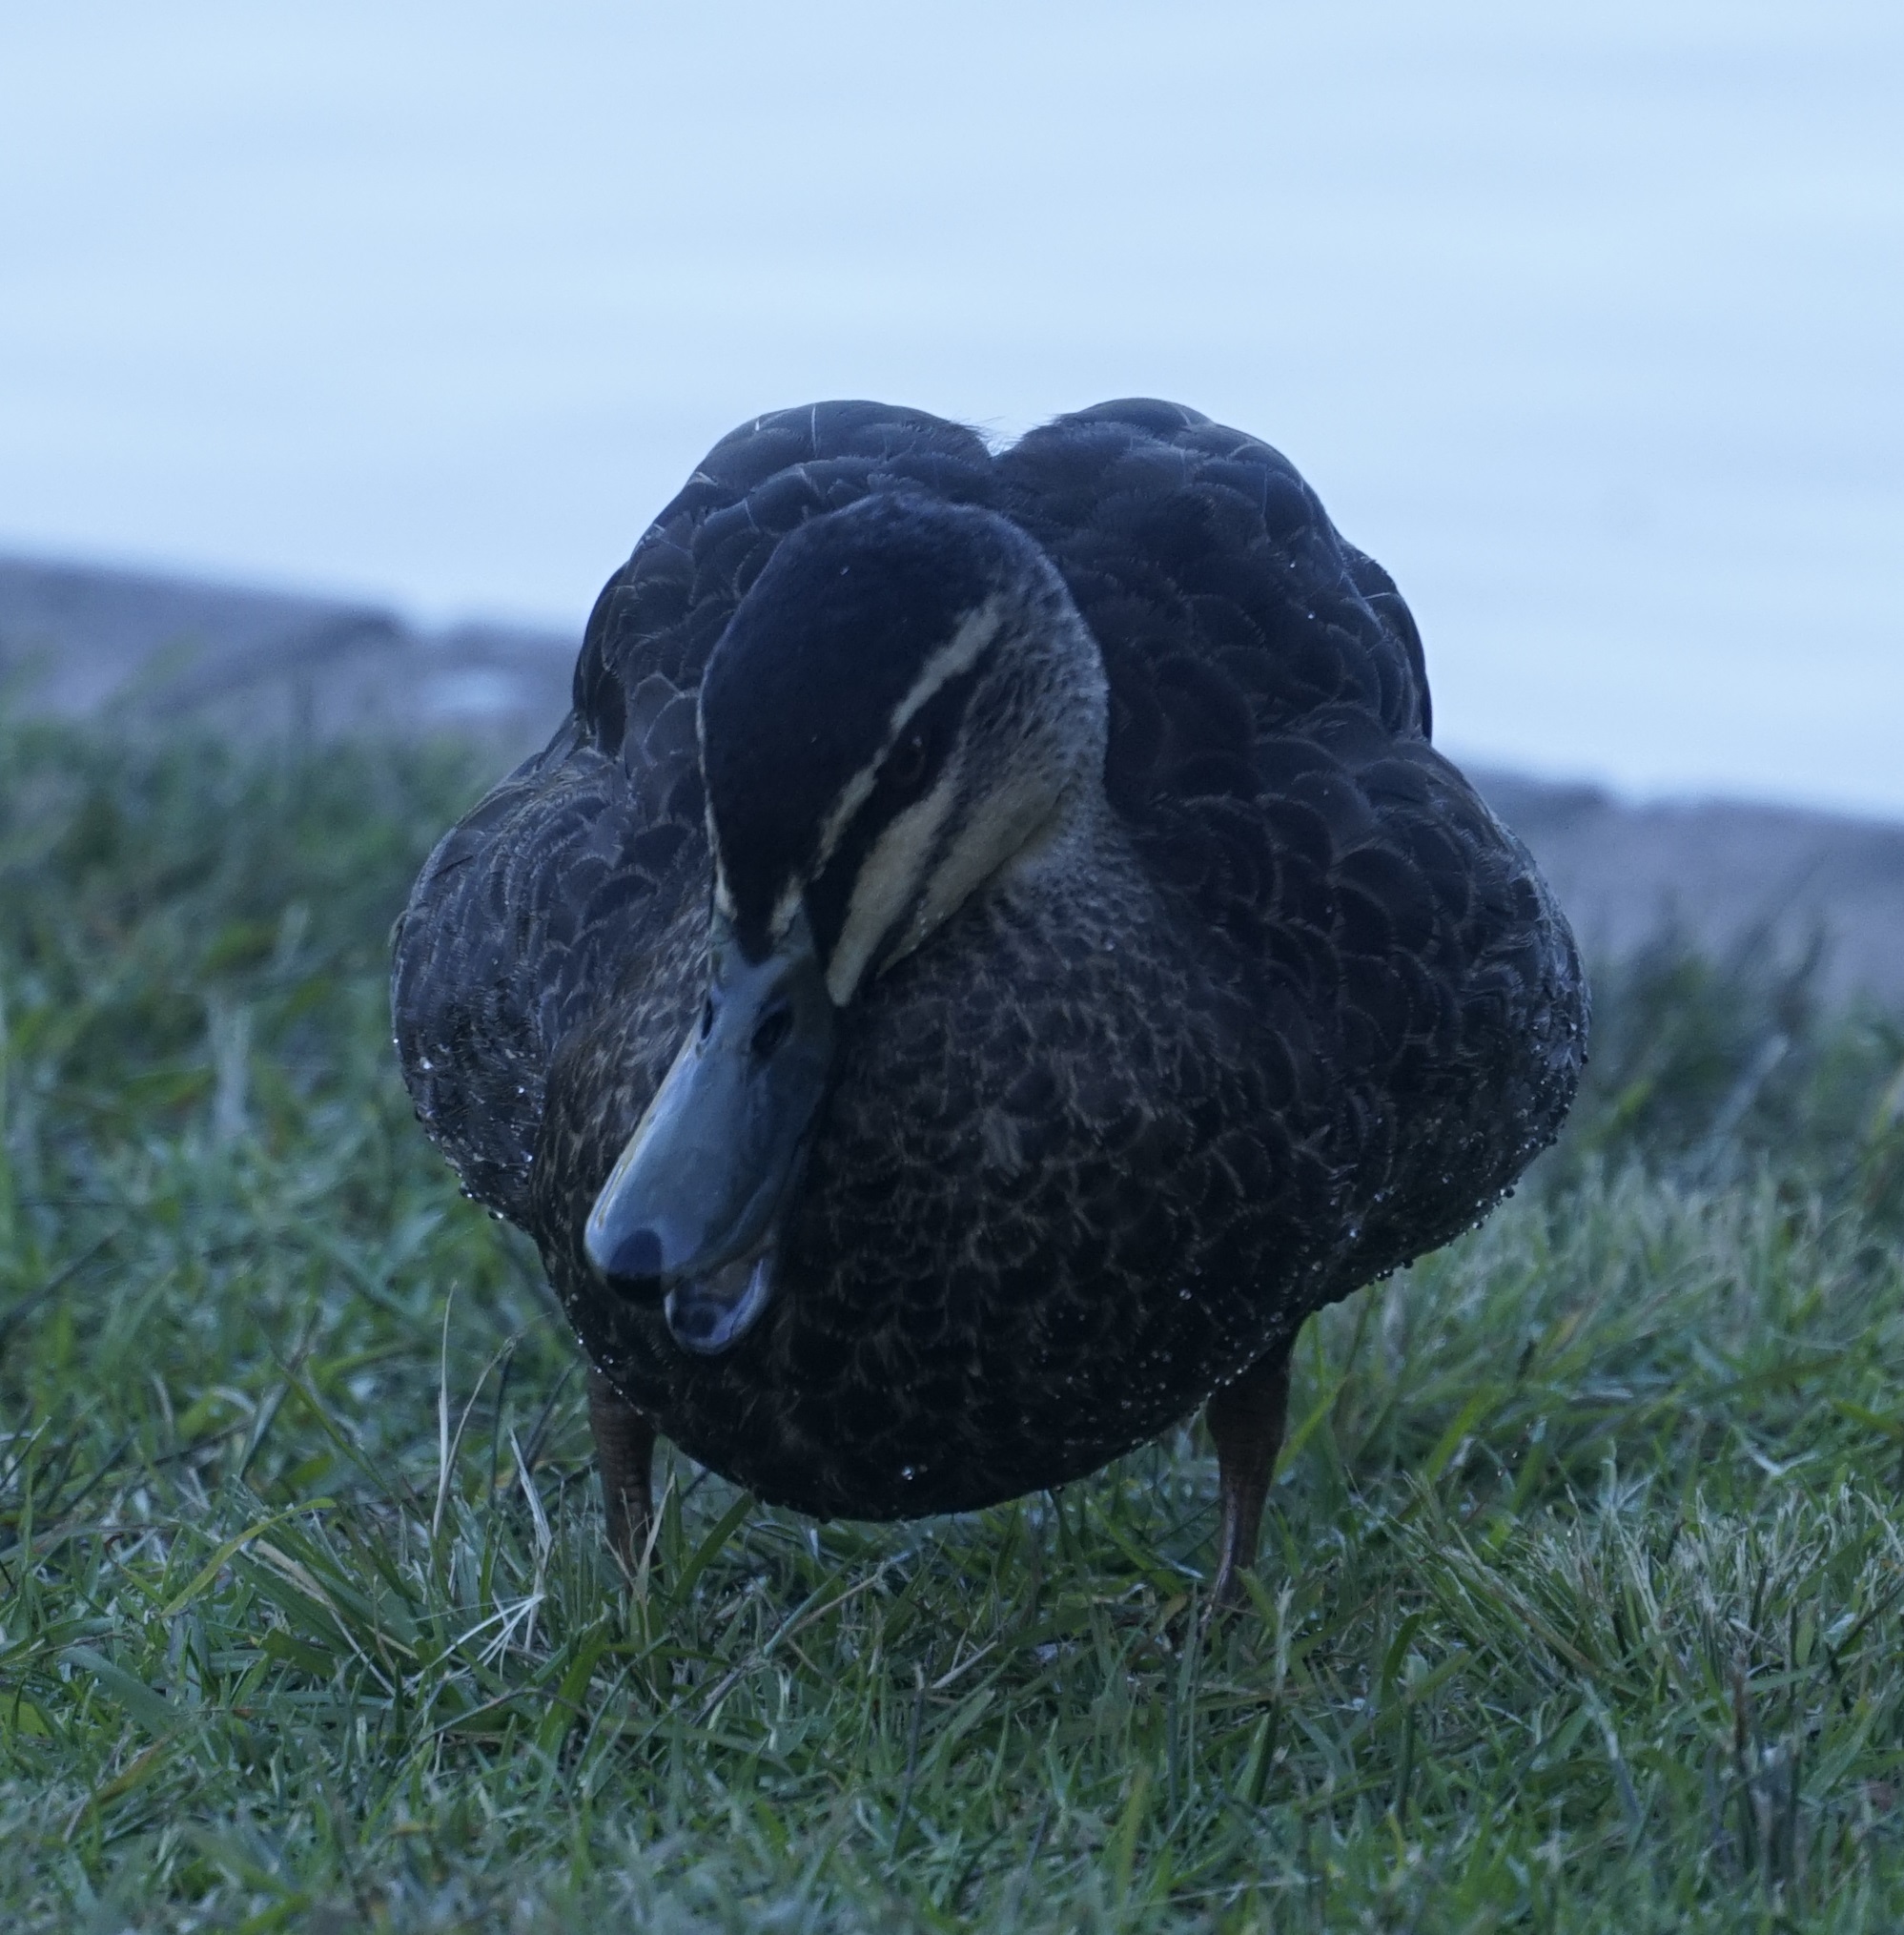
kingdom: Animalia
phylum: Chordata
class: Aves
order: Anseriformes
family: Anatidae
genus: Anas
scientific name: Anas superciliosa
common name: Pacific black duck
